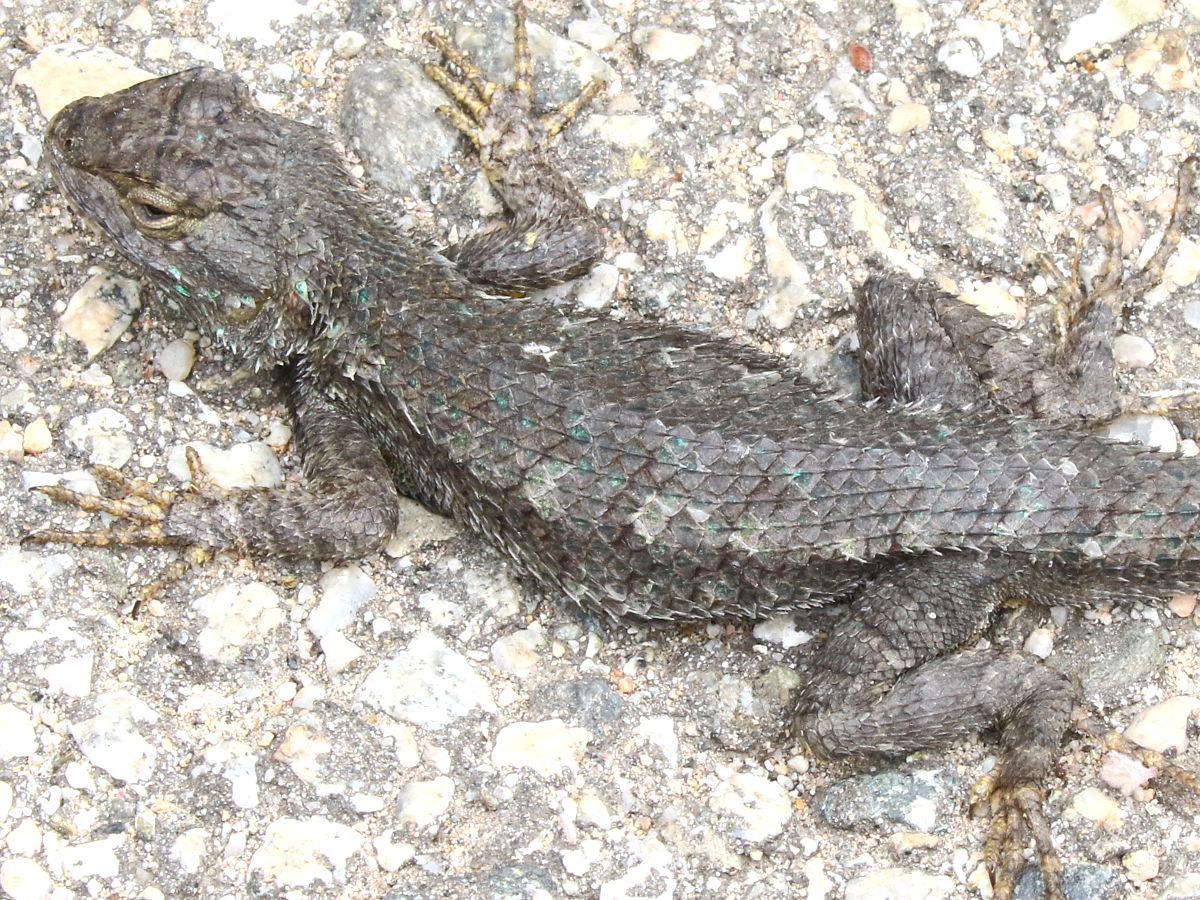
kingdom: Animalia
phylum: Chordata
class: Squamata
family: Phrynosomatidae
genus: Sceloporus
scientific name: Sceloporus occidentalis
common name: Western fence lizard
